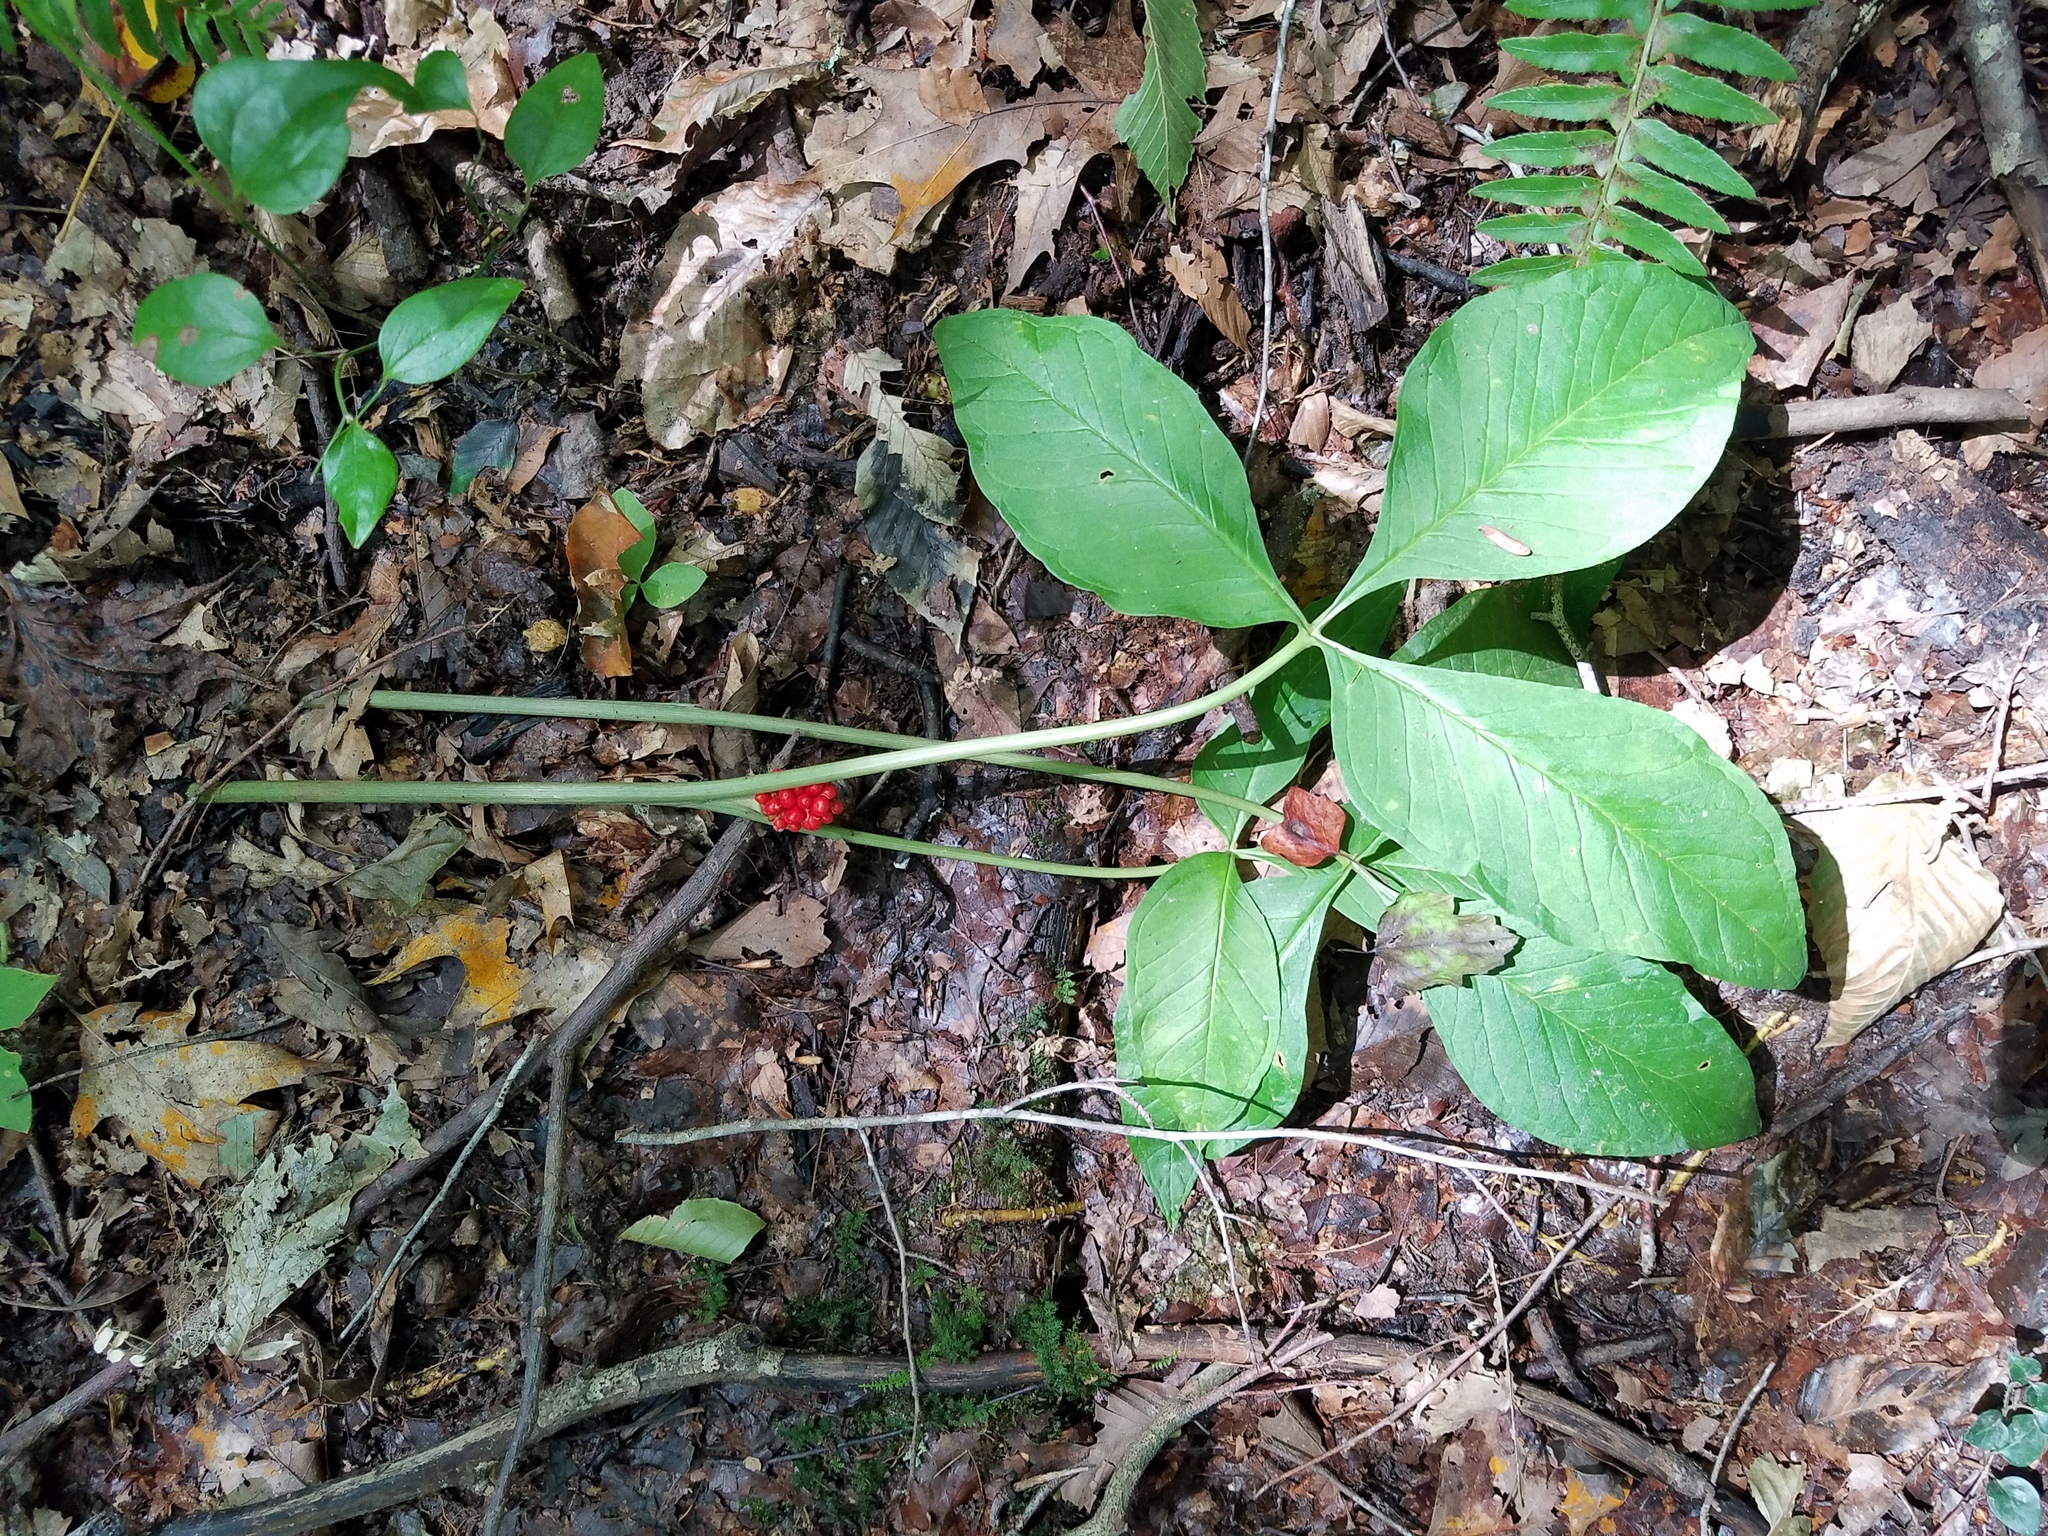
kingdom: Plantae
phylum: Tracheophyta
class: Liliopsida
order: Alismatales
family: Araceae
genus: Arisaema
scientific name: Arisaema triphyllum
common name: Jack-in-the-pulpit
